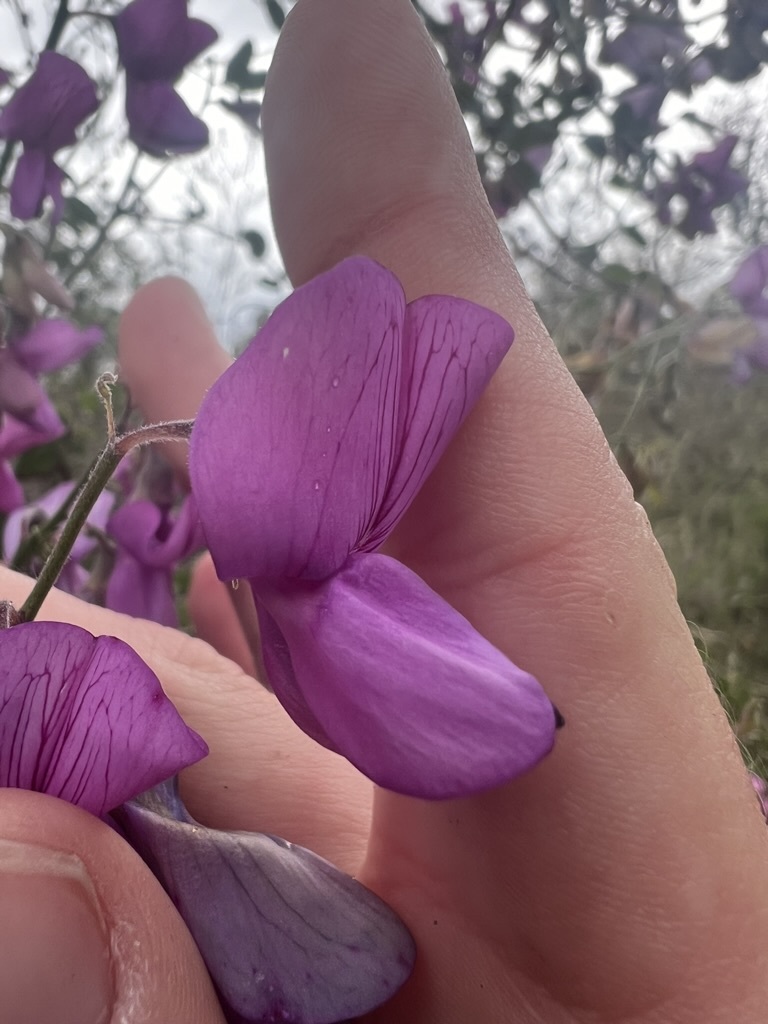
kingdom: Plantae
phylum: Tracheophyta
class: Magnoliopsida
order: Fabales
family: Fabaceae
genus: Lathyrus
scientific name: Lathyrus vestitus
